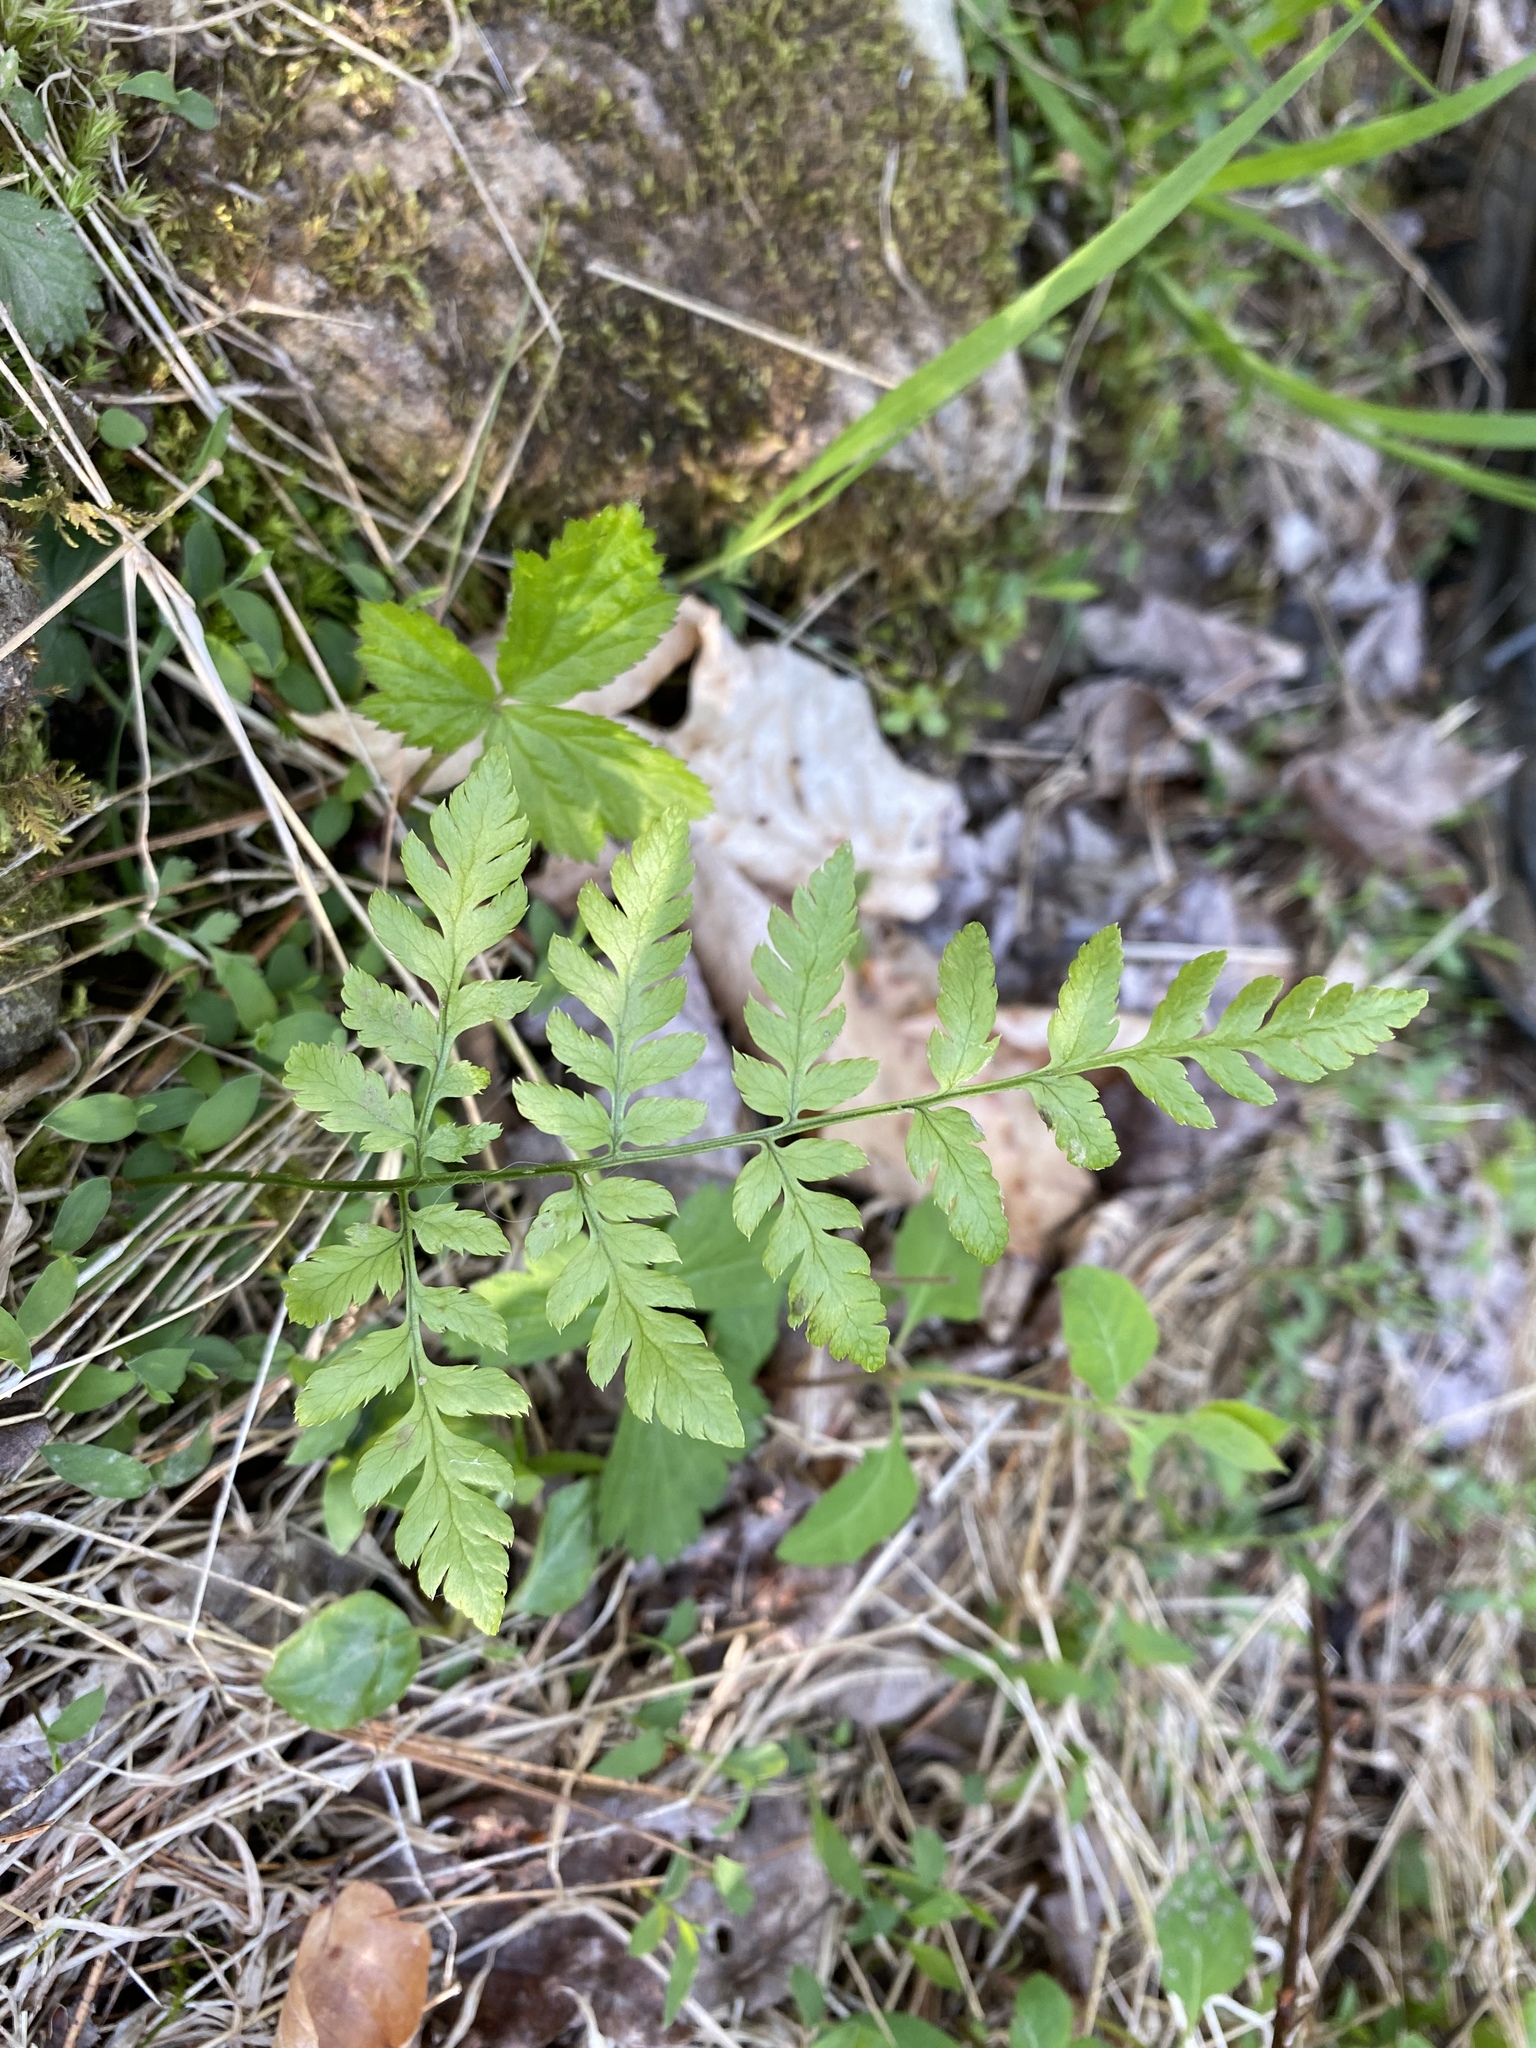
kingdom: Plantae
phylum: Tracheophyta
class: Polypodiopsida
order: Polypodiales
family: Dryopteridaceae
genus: Dryopteris
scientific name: Dryopteris carthusiana
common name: Narrow buckler-fern
